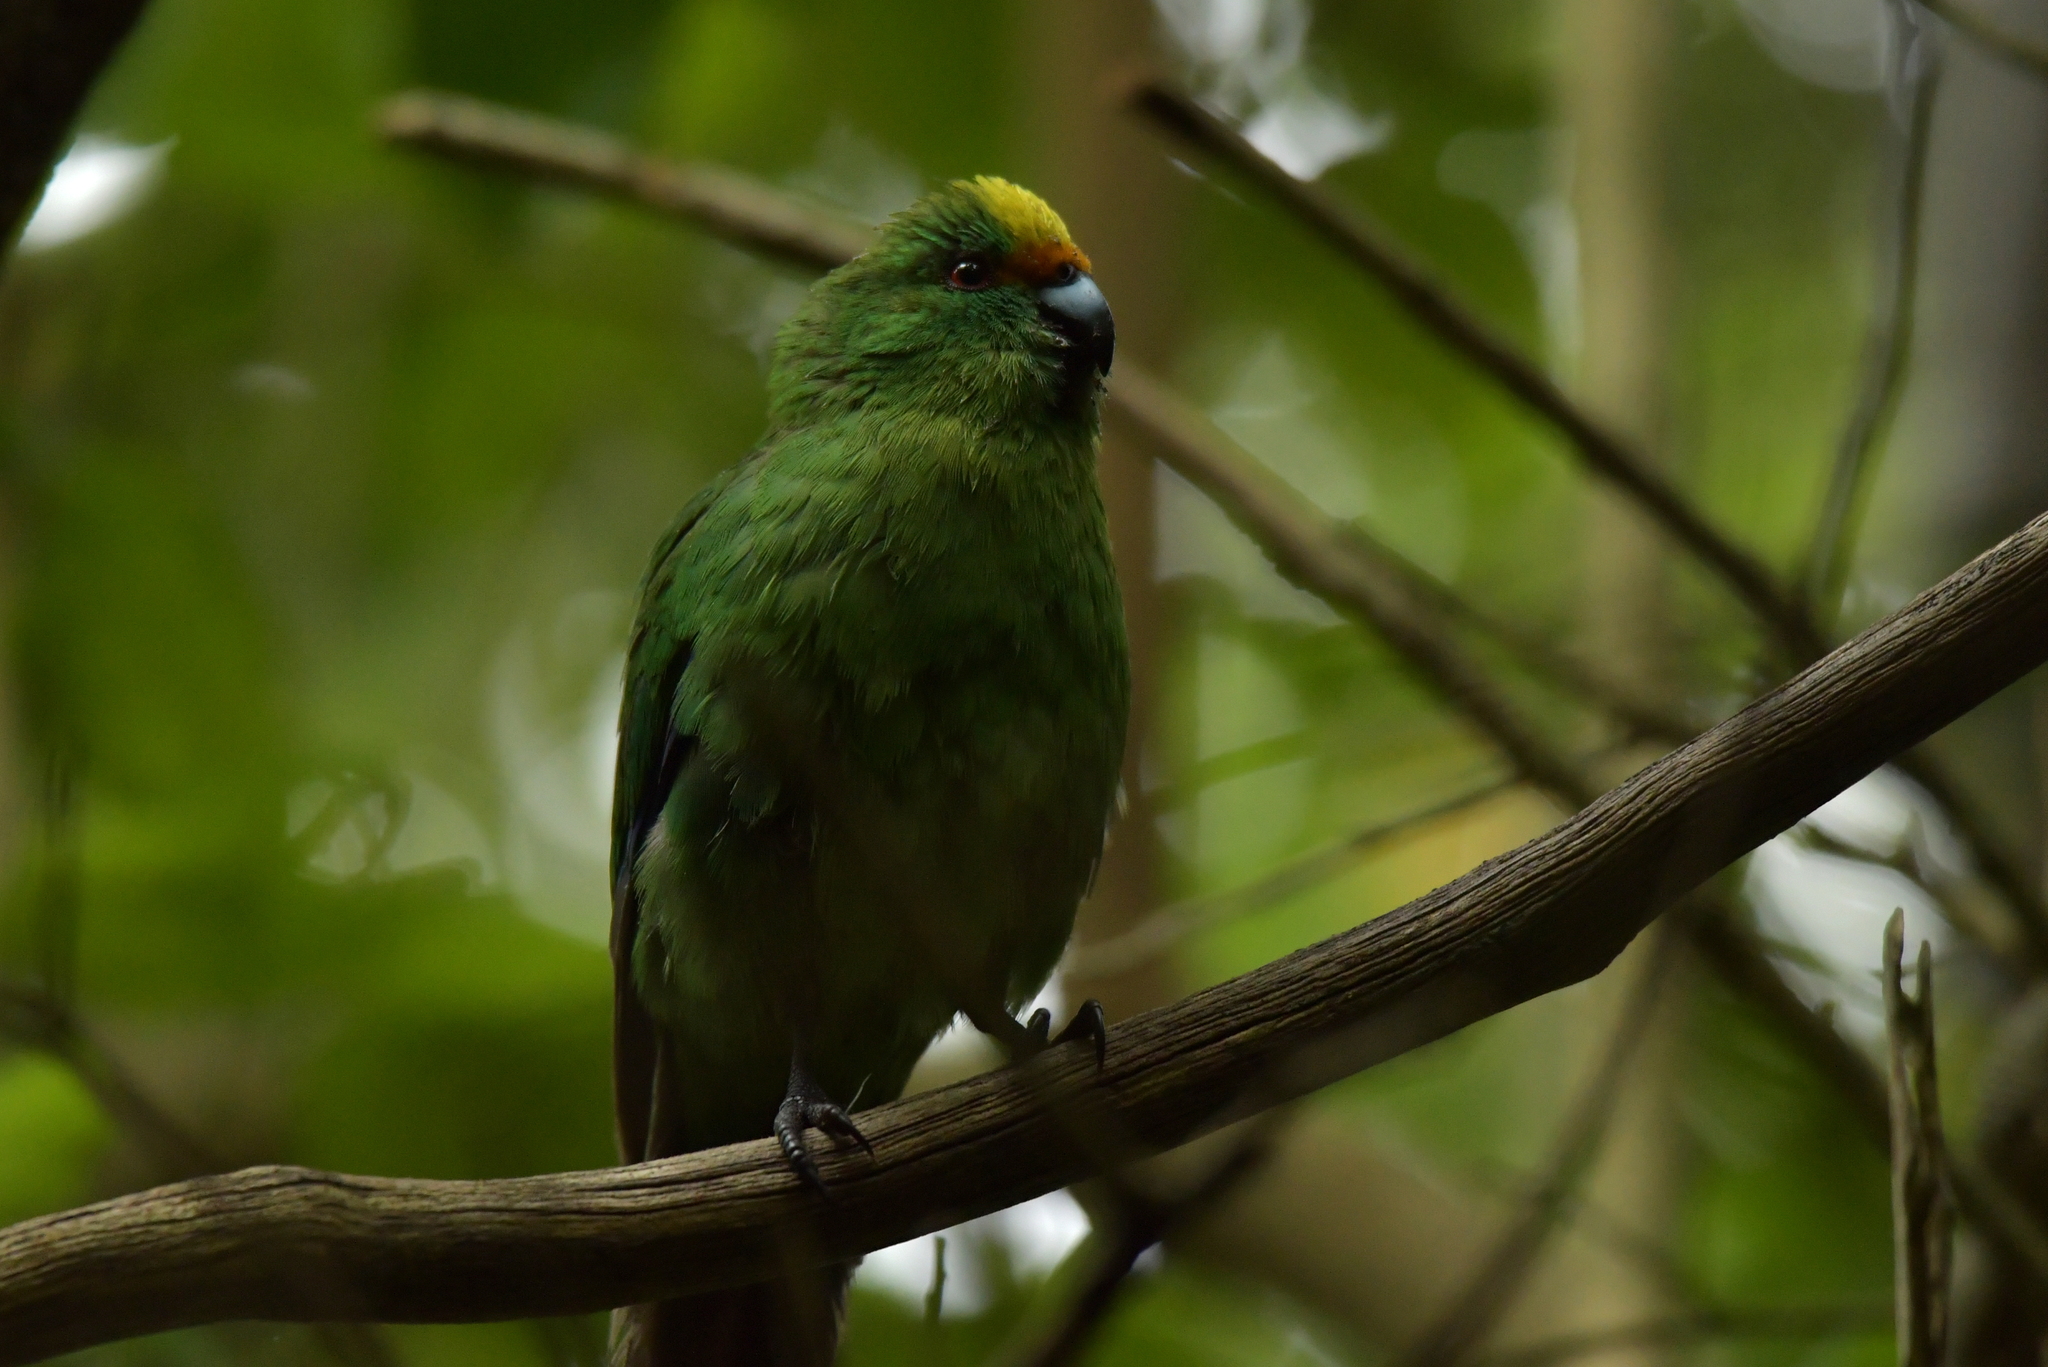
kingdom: Animalia
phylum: Chordata
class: Aves
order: Psittaciformes
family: Psittacidae
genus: Cyanoramphus
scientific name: Cyanoramphus malherbi
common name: Malherbe's parakeet
